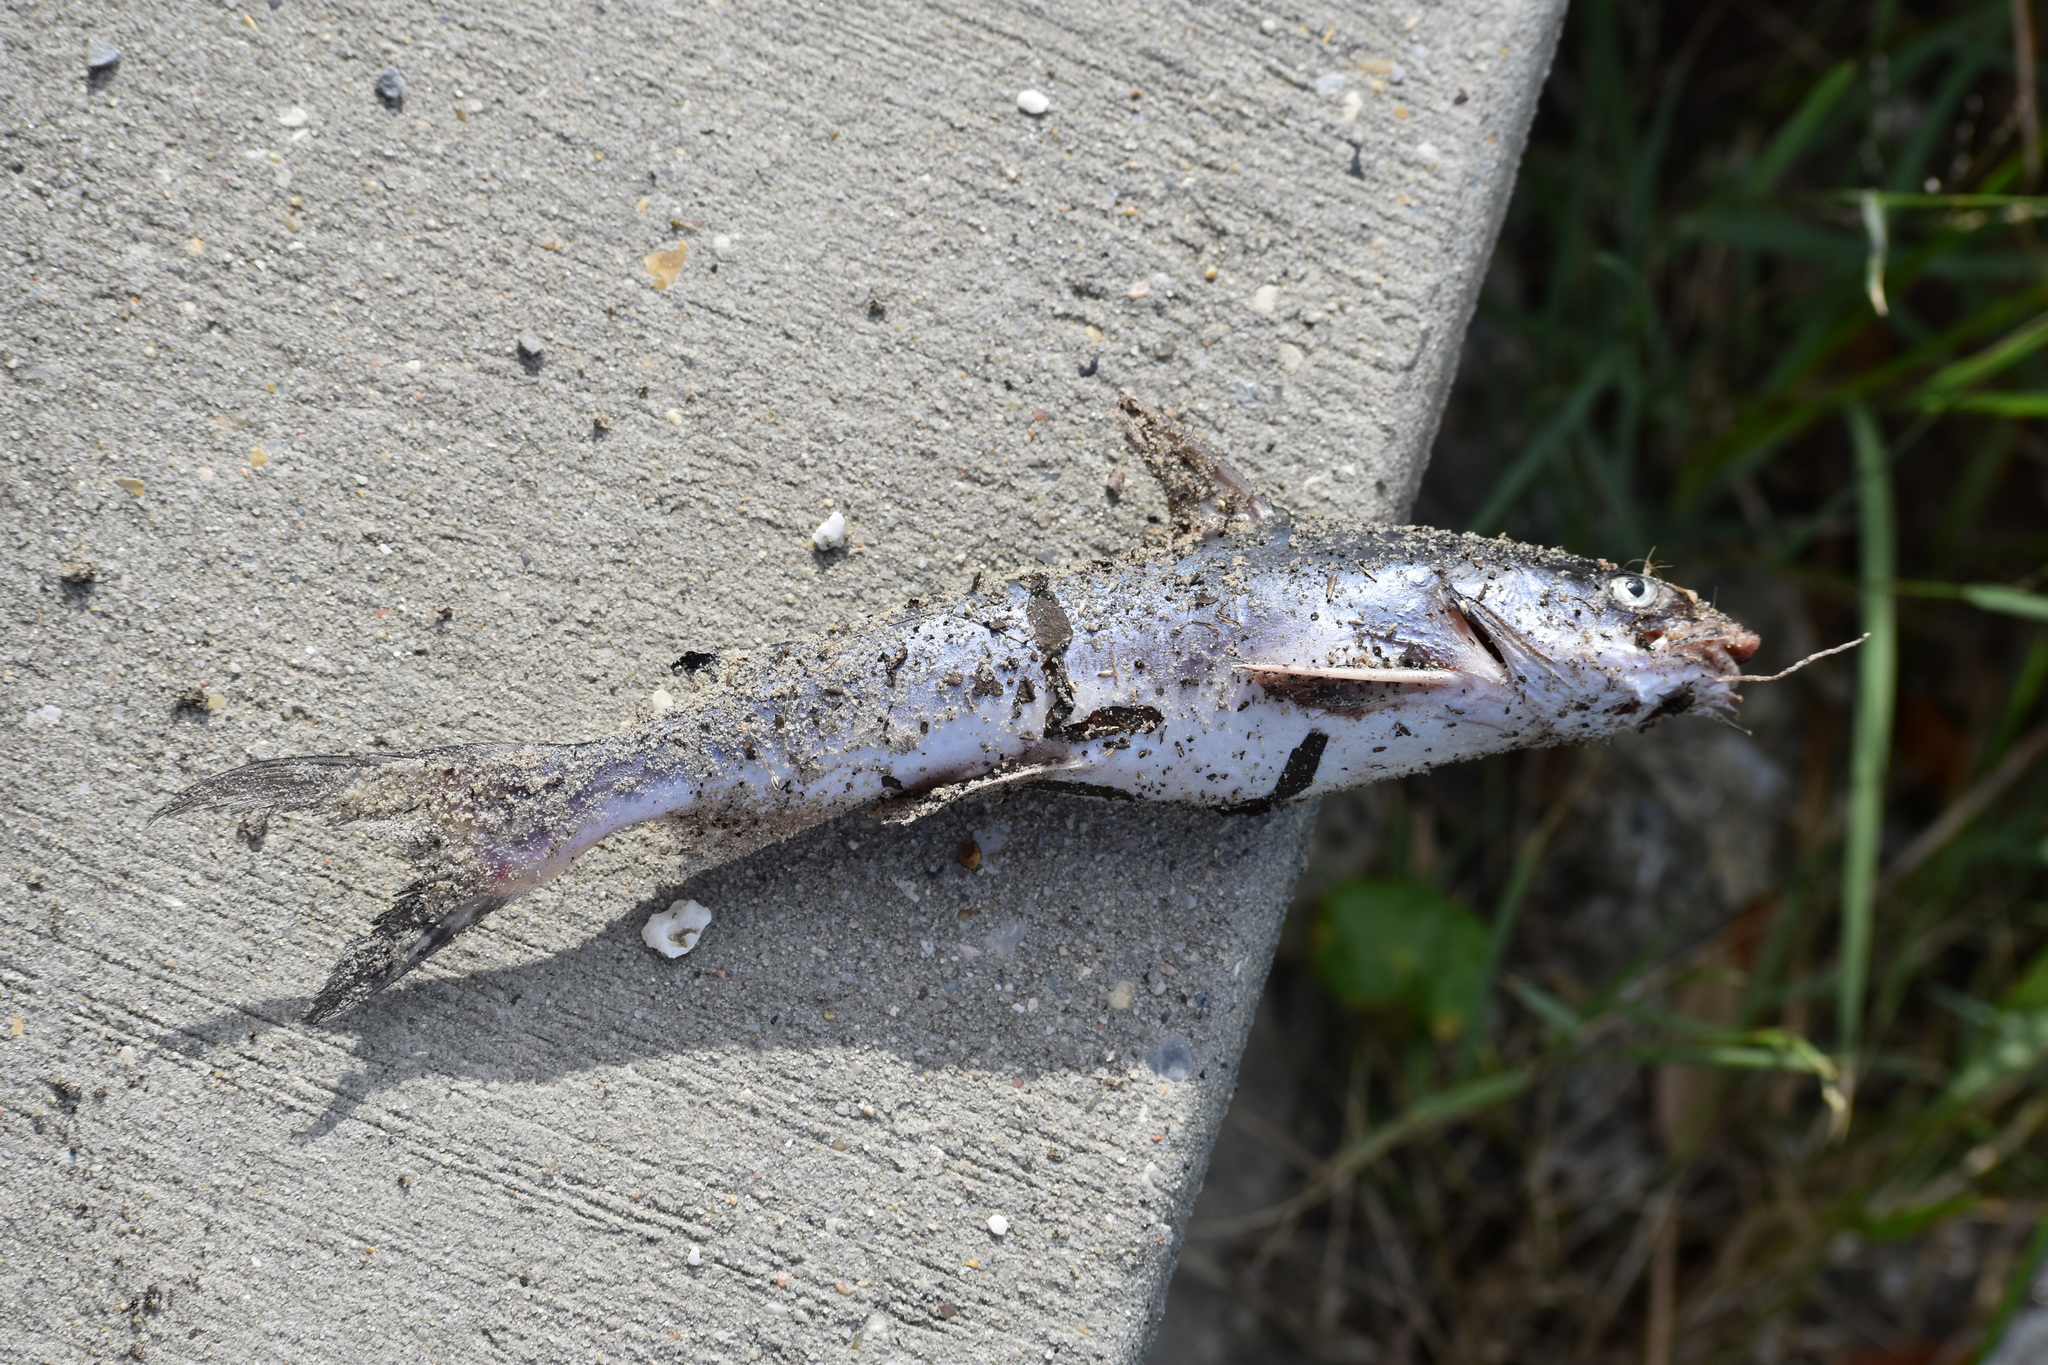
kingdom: Animalia
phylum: Chordata
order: Siluriformes
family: Ariidae
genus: Ariopsis
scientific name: Ariopsis felis
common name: Hardhead catfish
